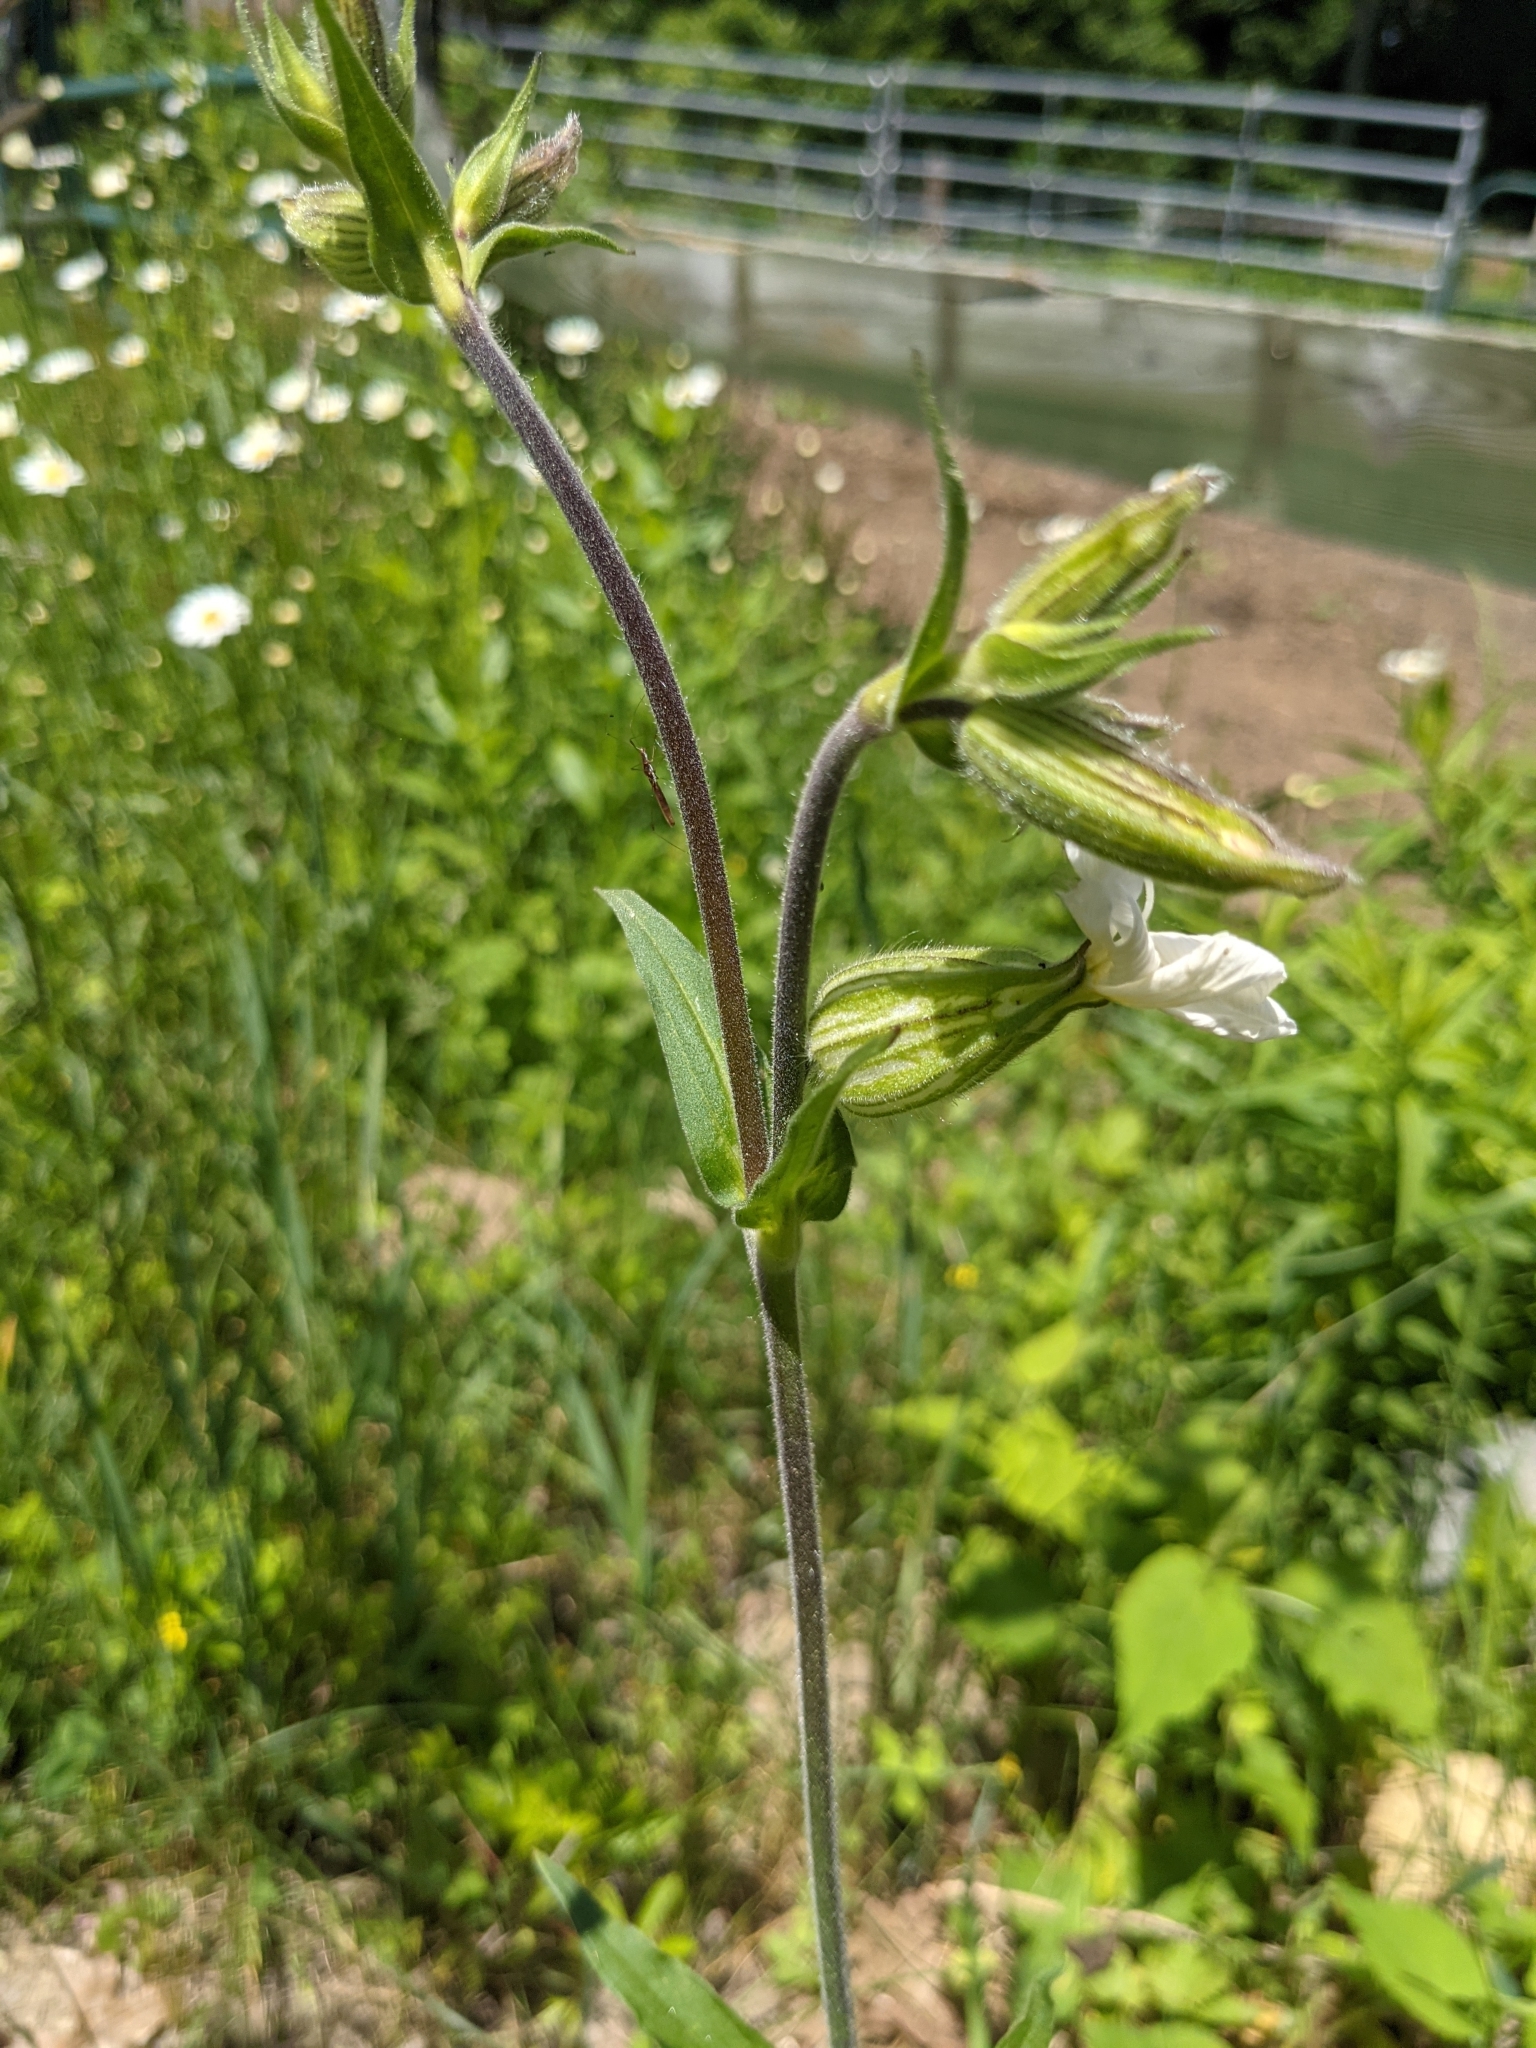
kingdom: Plantae
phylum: Tracheophyta
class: Magnoliopsida
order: Caryophyllales
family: Caryophyllaceae
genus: Silene
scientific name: Silene latifolia
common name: White campion
